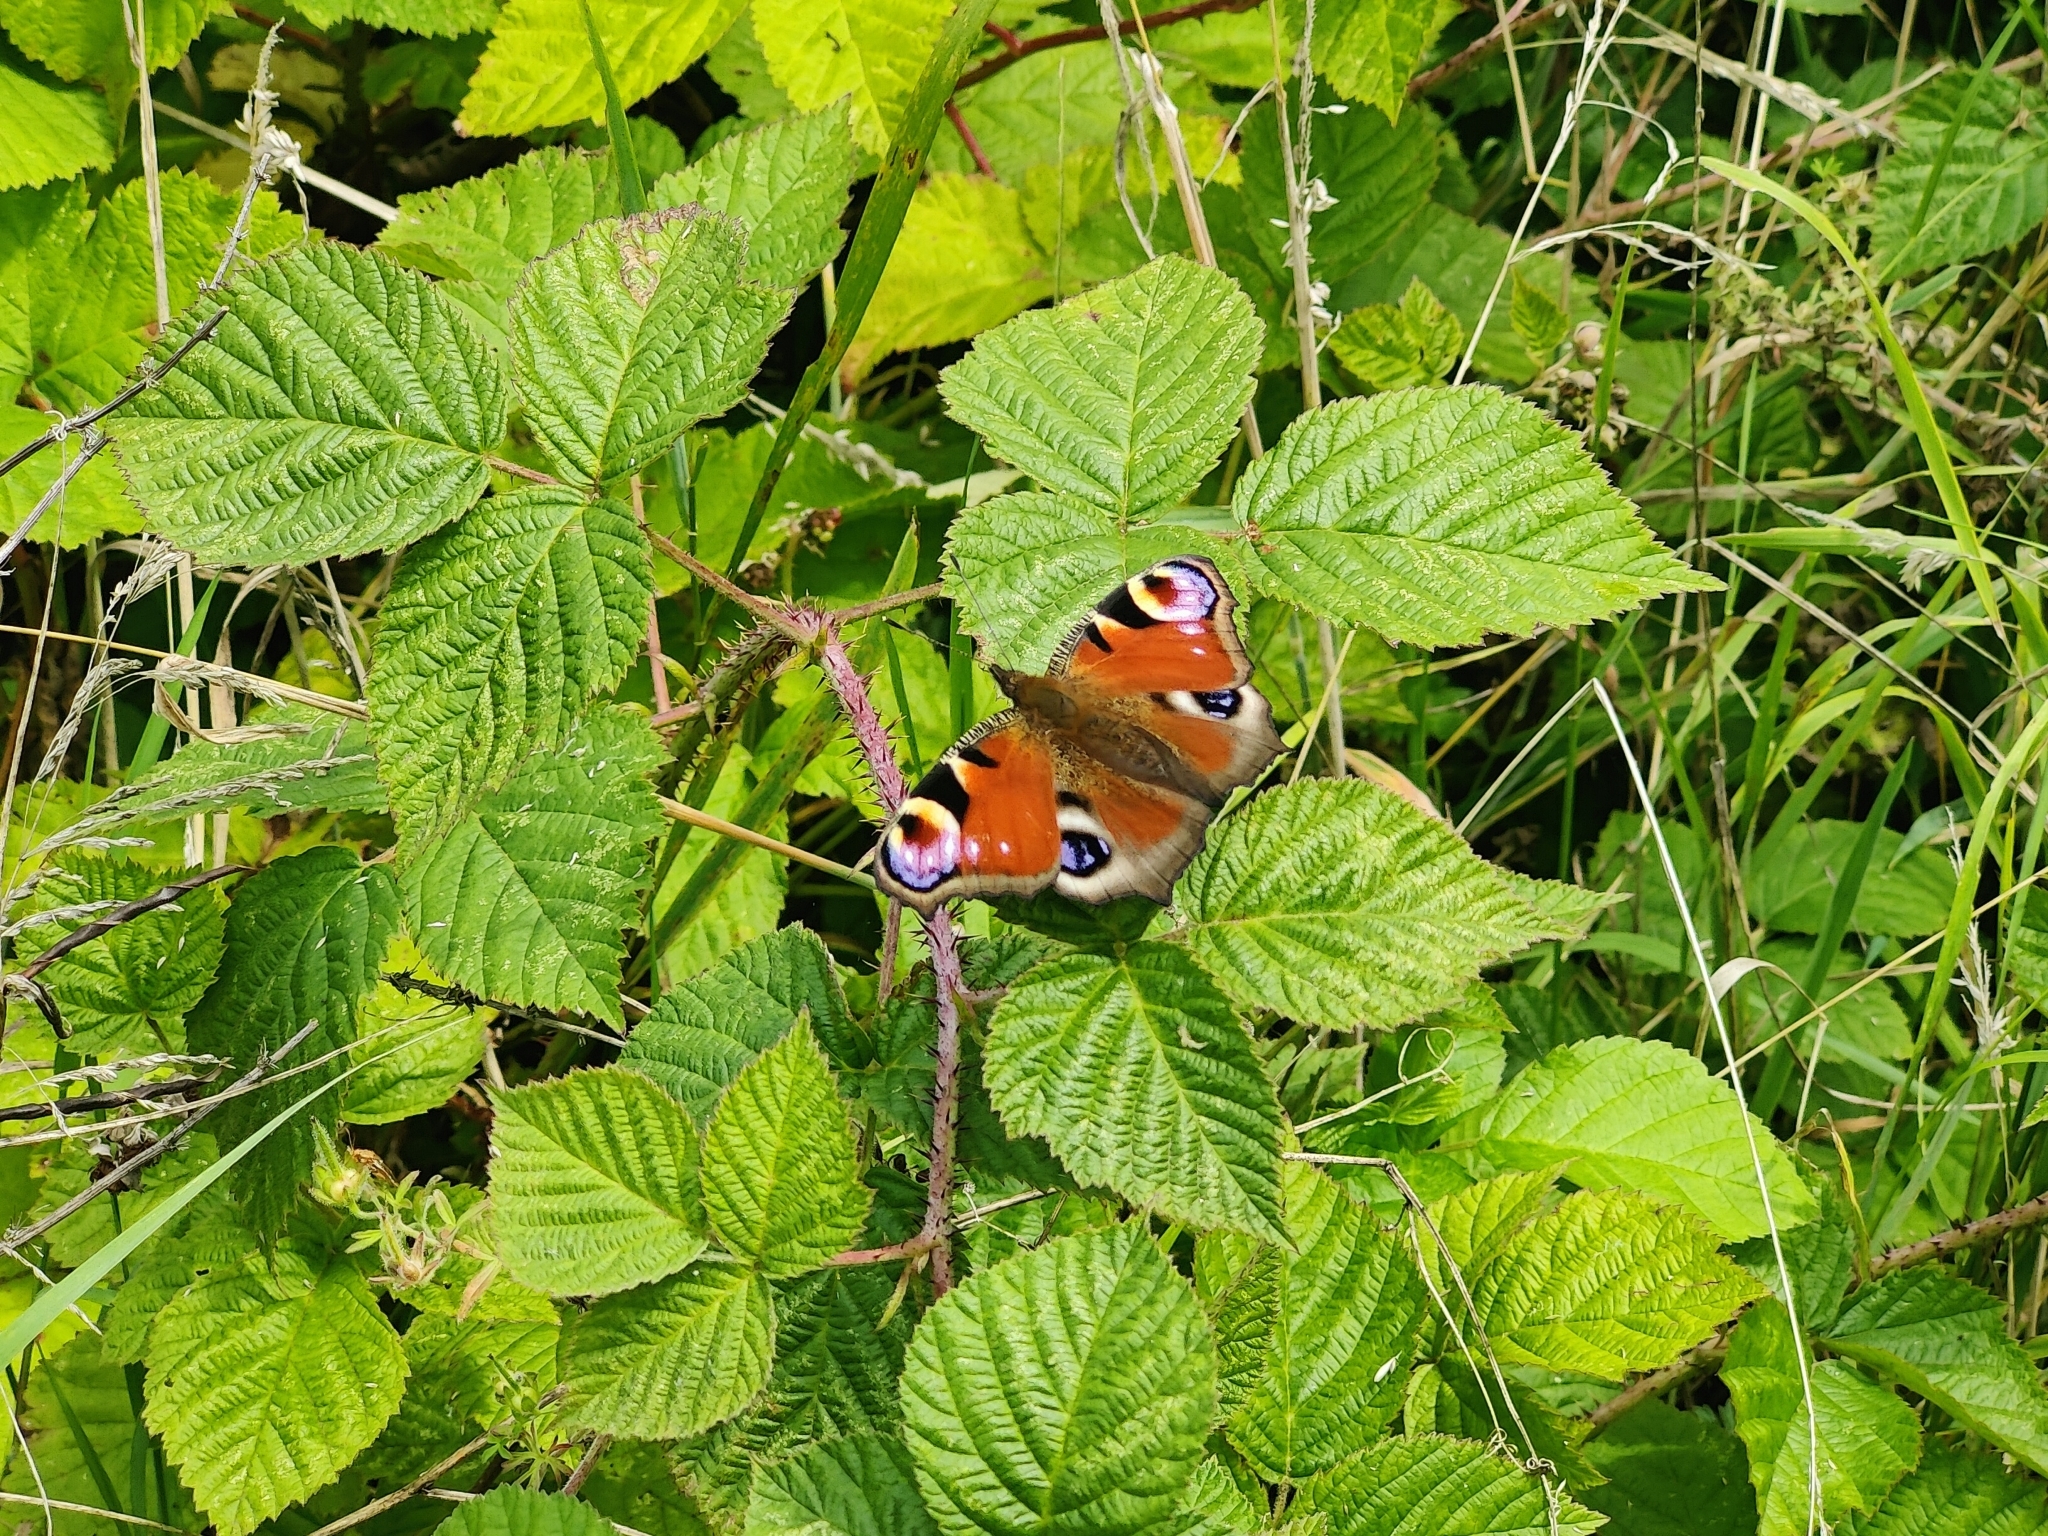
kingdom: Animalia
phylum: Arthropoda
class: Insecta
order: Lepidoptera
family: Nymphalidae
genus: Aglais
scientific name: Aglais io
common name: Peacock
